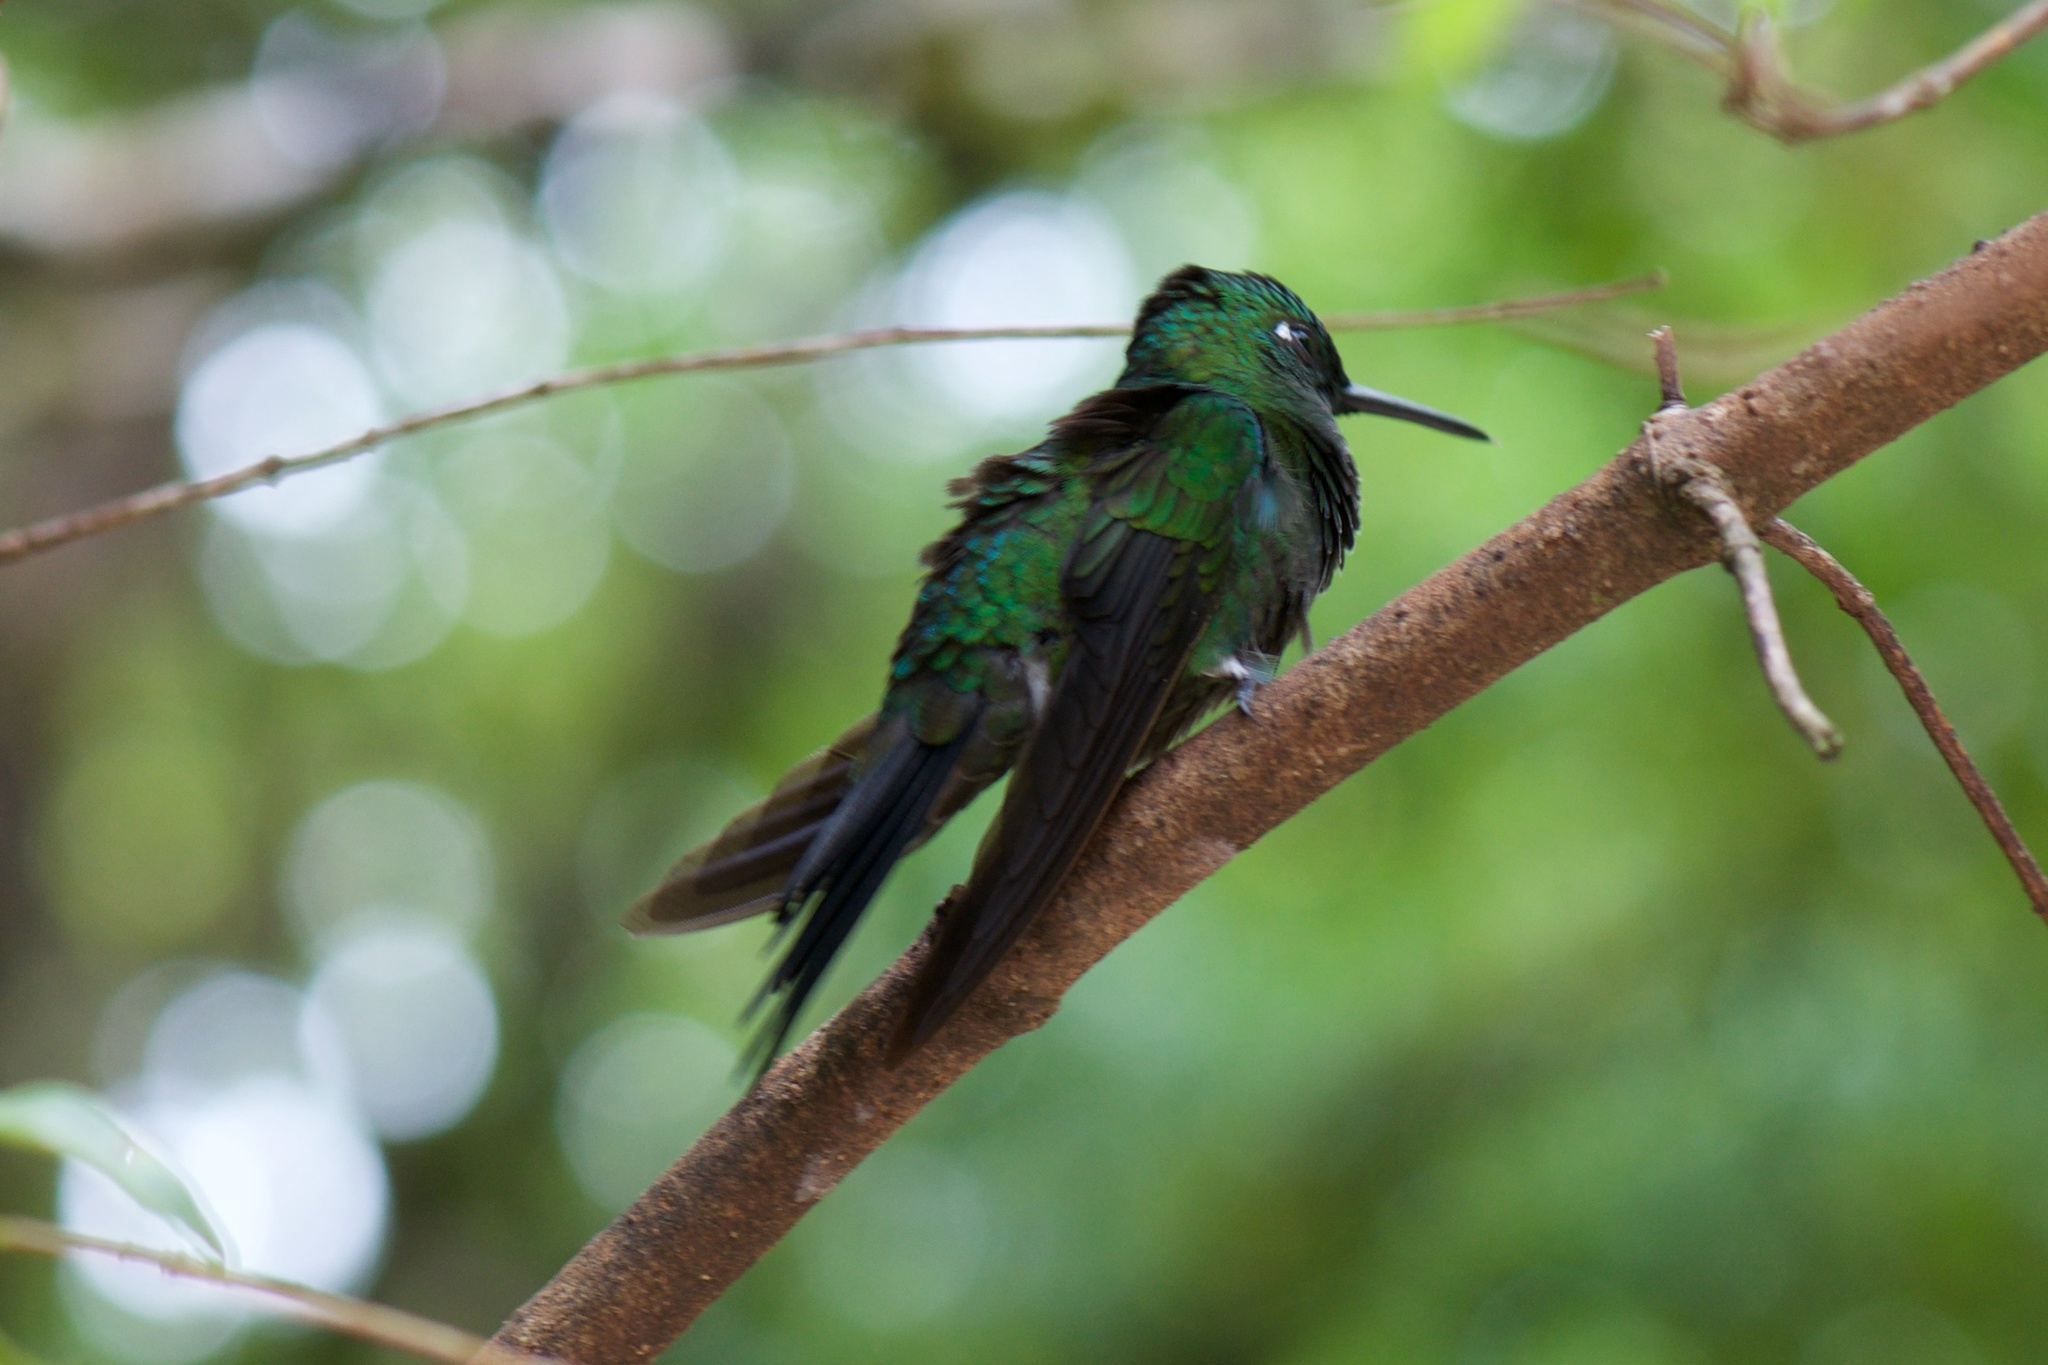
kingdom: Animalia
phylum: Chordata
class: Aves
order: Apodiformes
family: Trochilidae
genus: Heliodoxa
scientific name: Heliodoxa jacula
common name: Green-crowned brilliant
